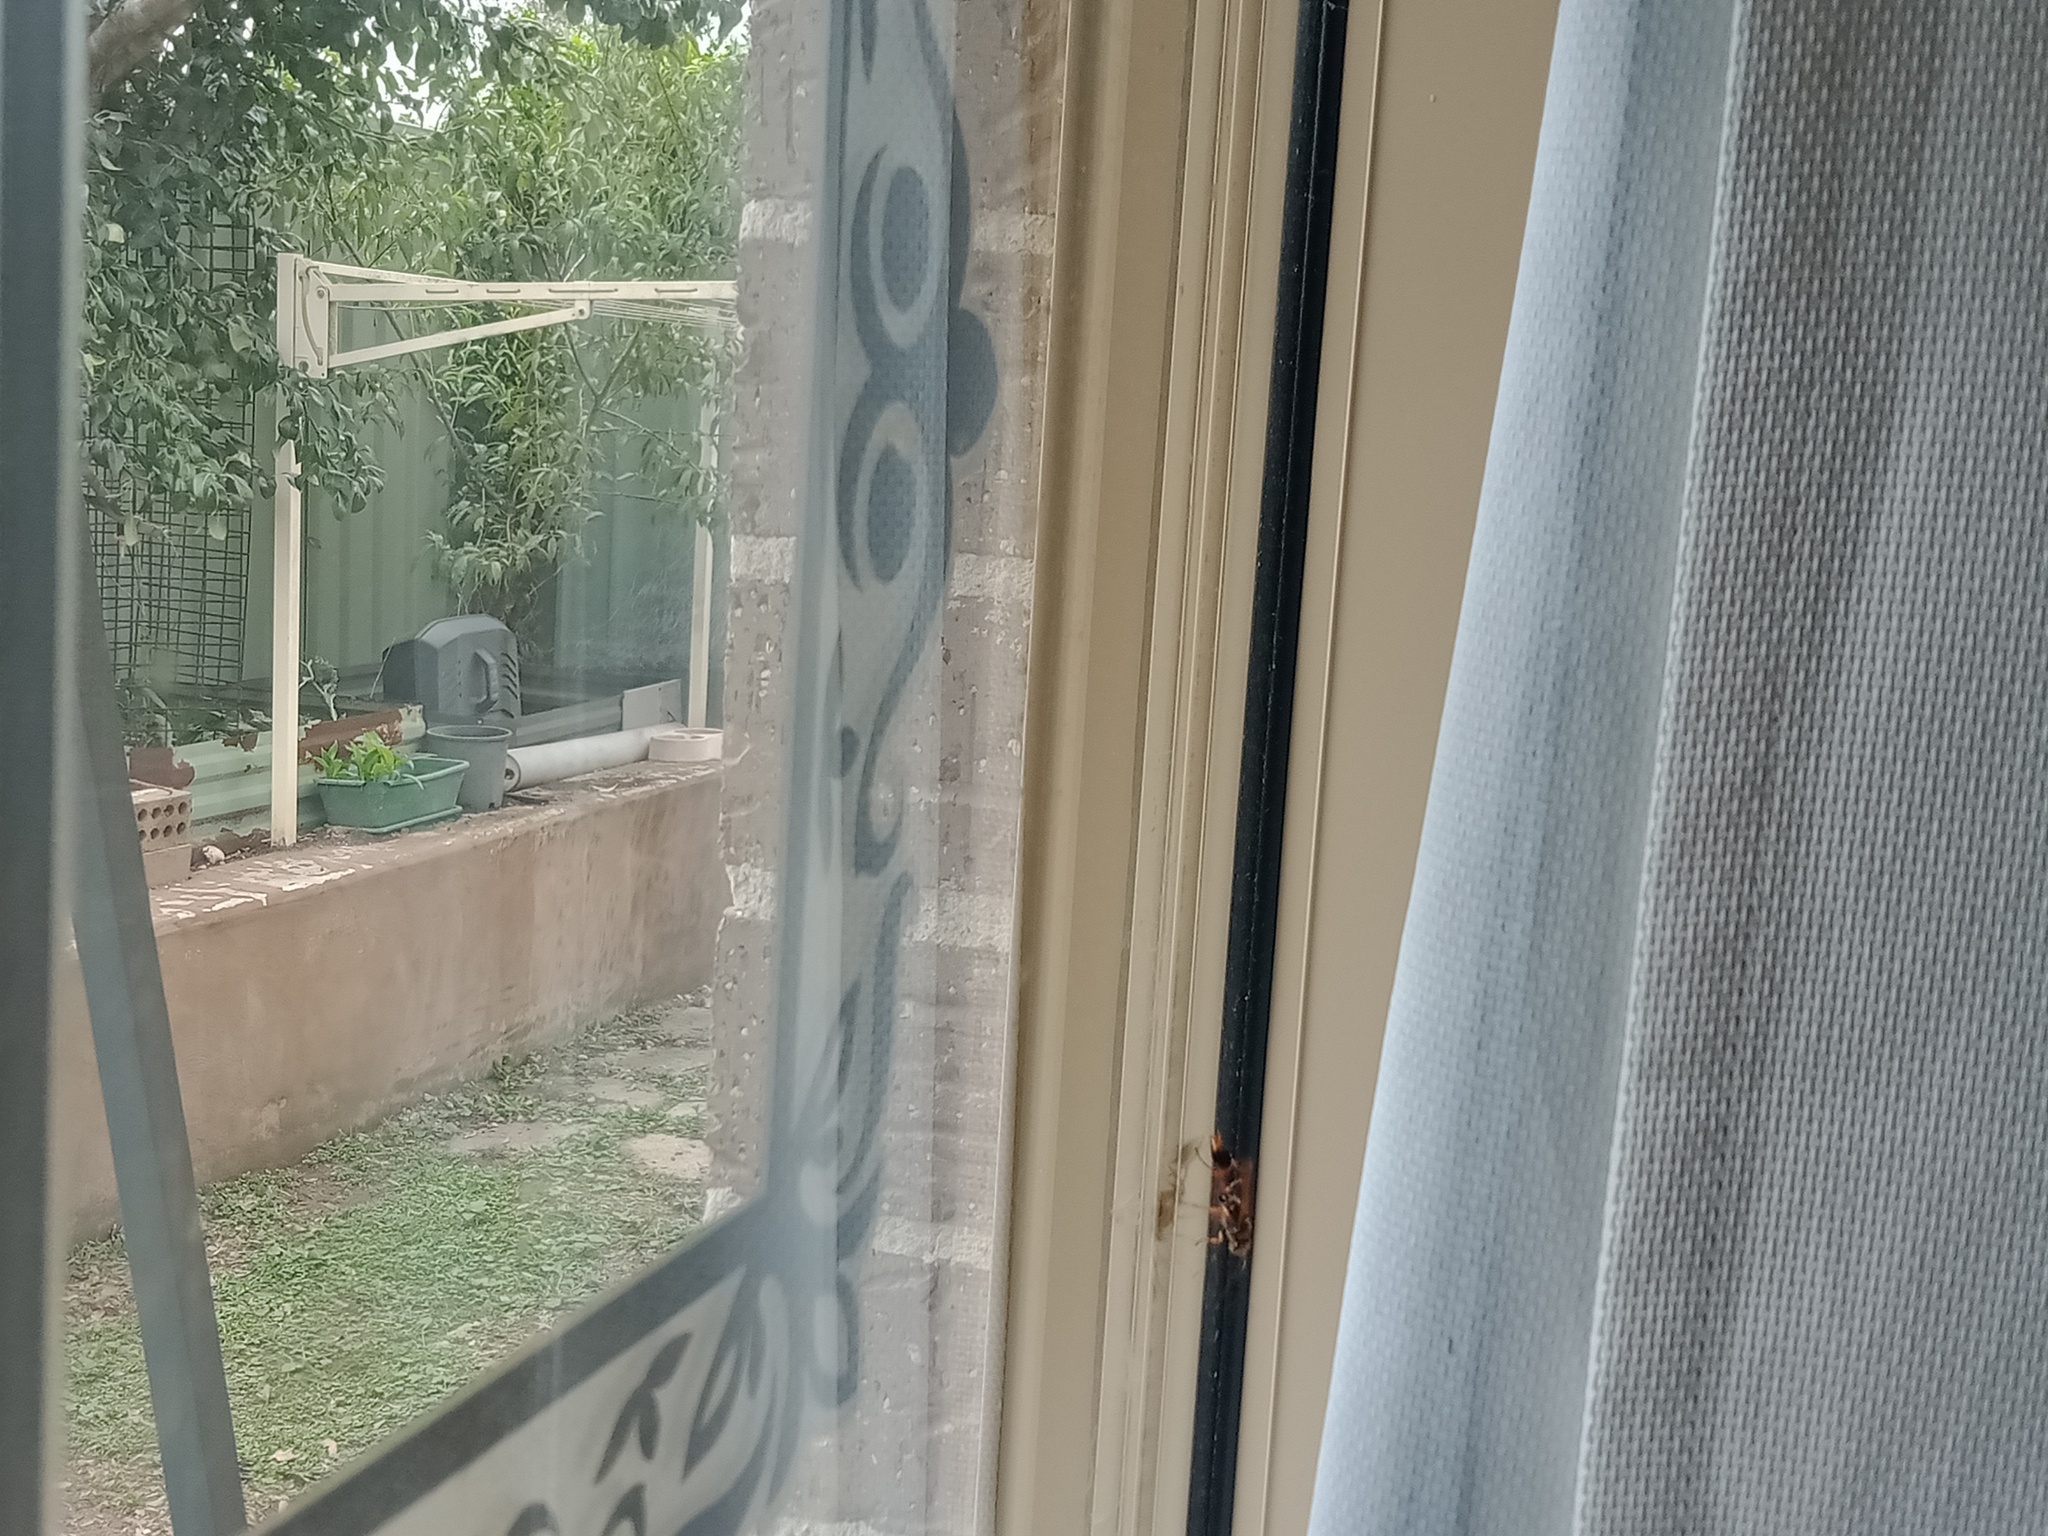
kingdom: Animalia
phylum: Arthropoda
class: Insecta
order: Hymenoptera
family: Sphecidae
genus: Sceliphron
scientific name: Sceliphron formosum
